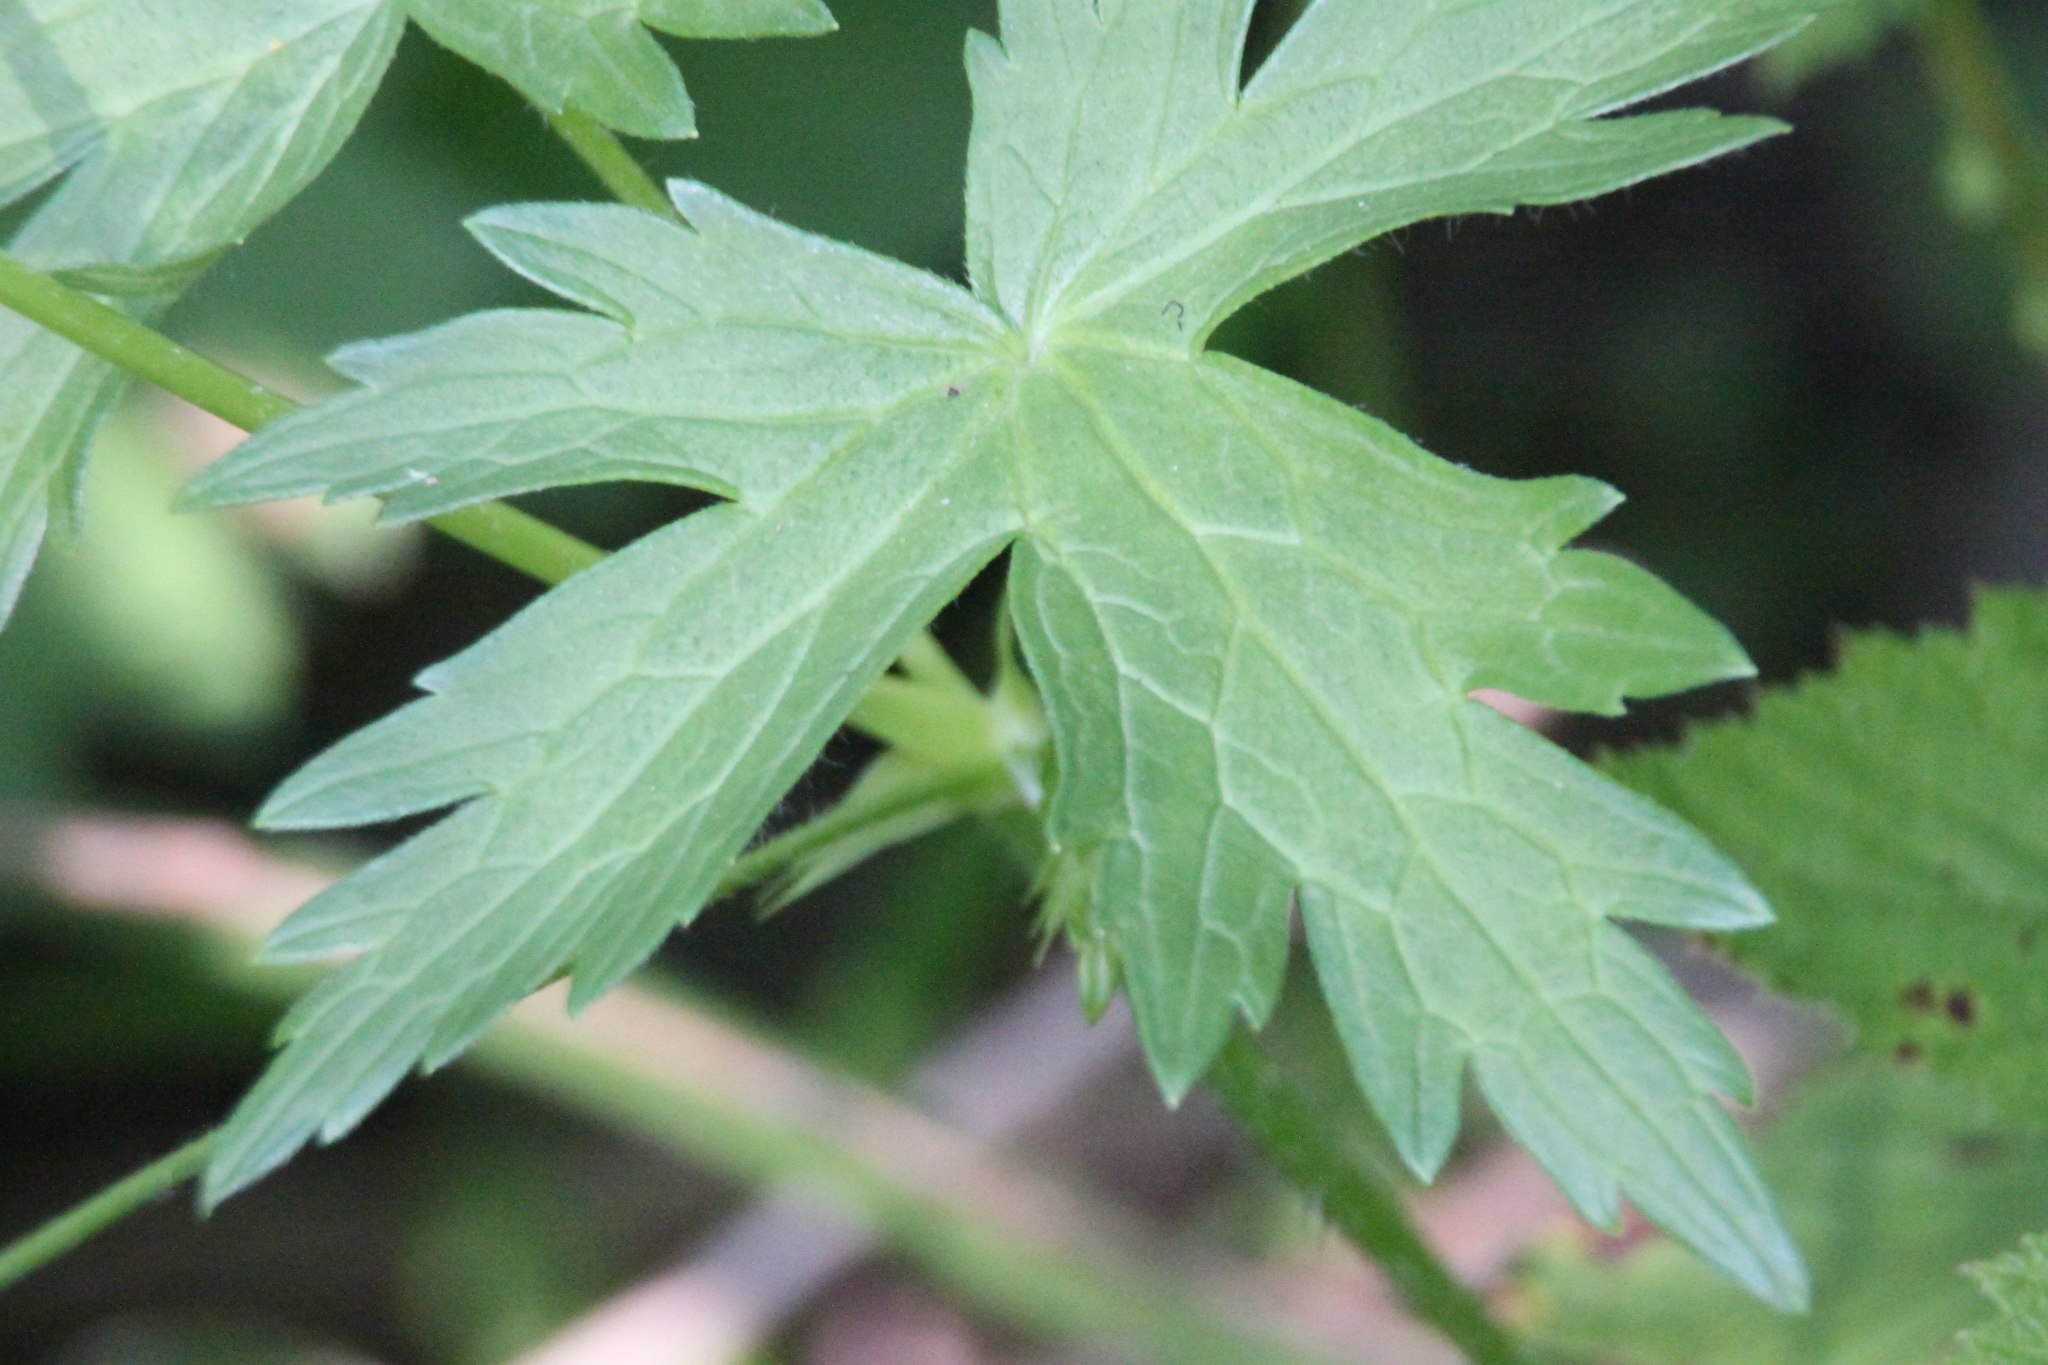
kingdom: Plantae
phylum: Tracheophyta
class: Magnoliopsida
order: Geraniales
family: Geraniaceae
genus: Geranium
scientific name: Geranium palustre
